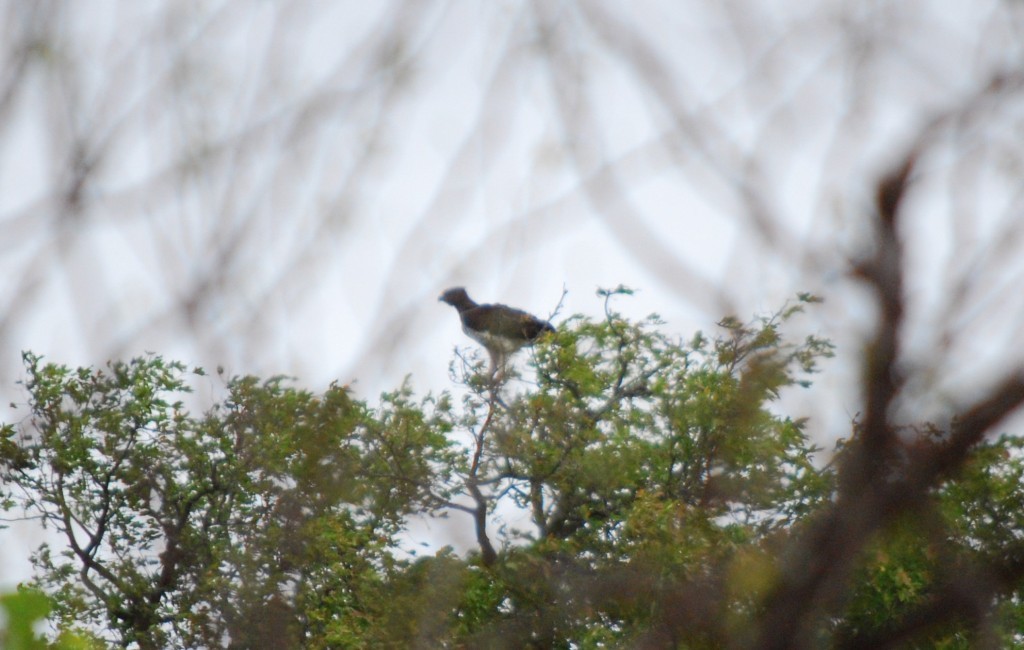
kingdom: Animalia
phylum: Chordata
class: Aves
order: Accipitriformes
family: Accipitridae
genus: Polemaetus
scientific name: Polemaetus bellicosus
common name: Martial eagle
